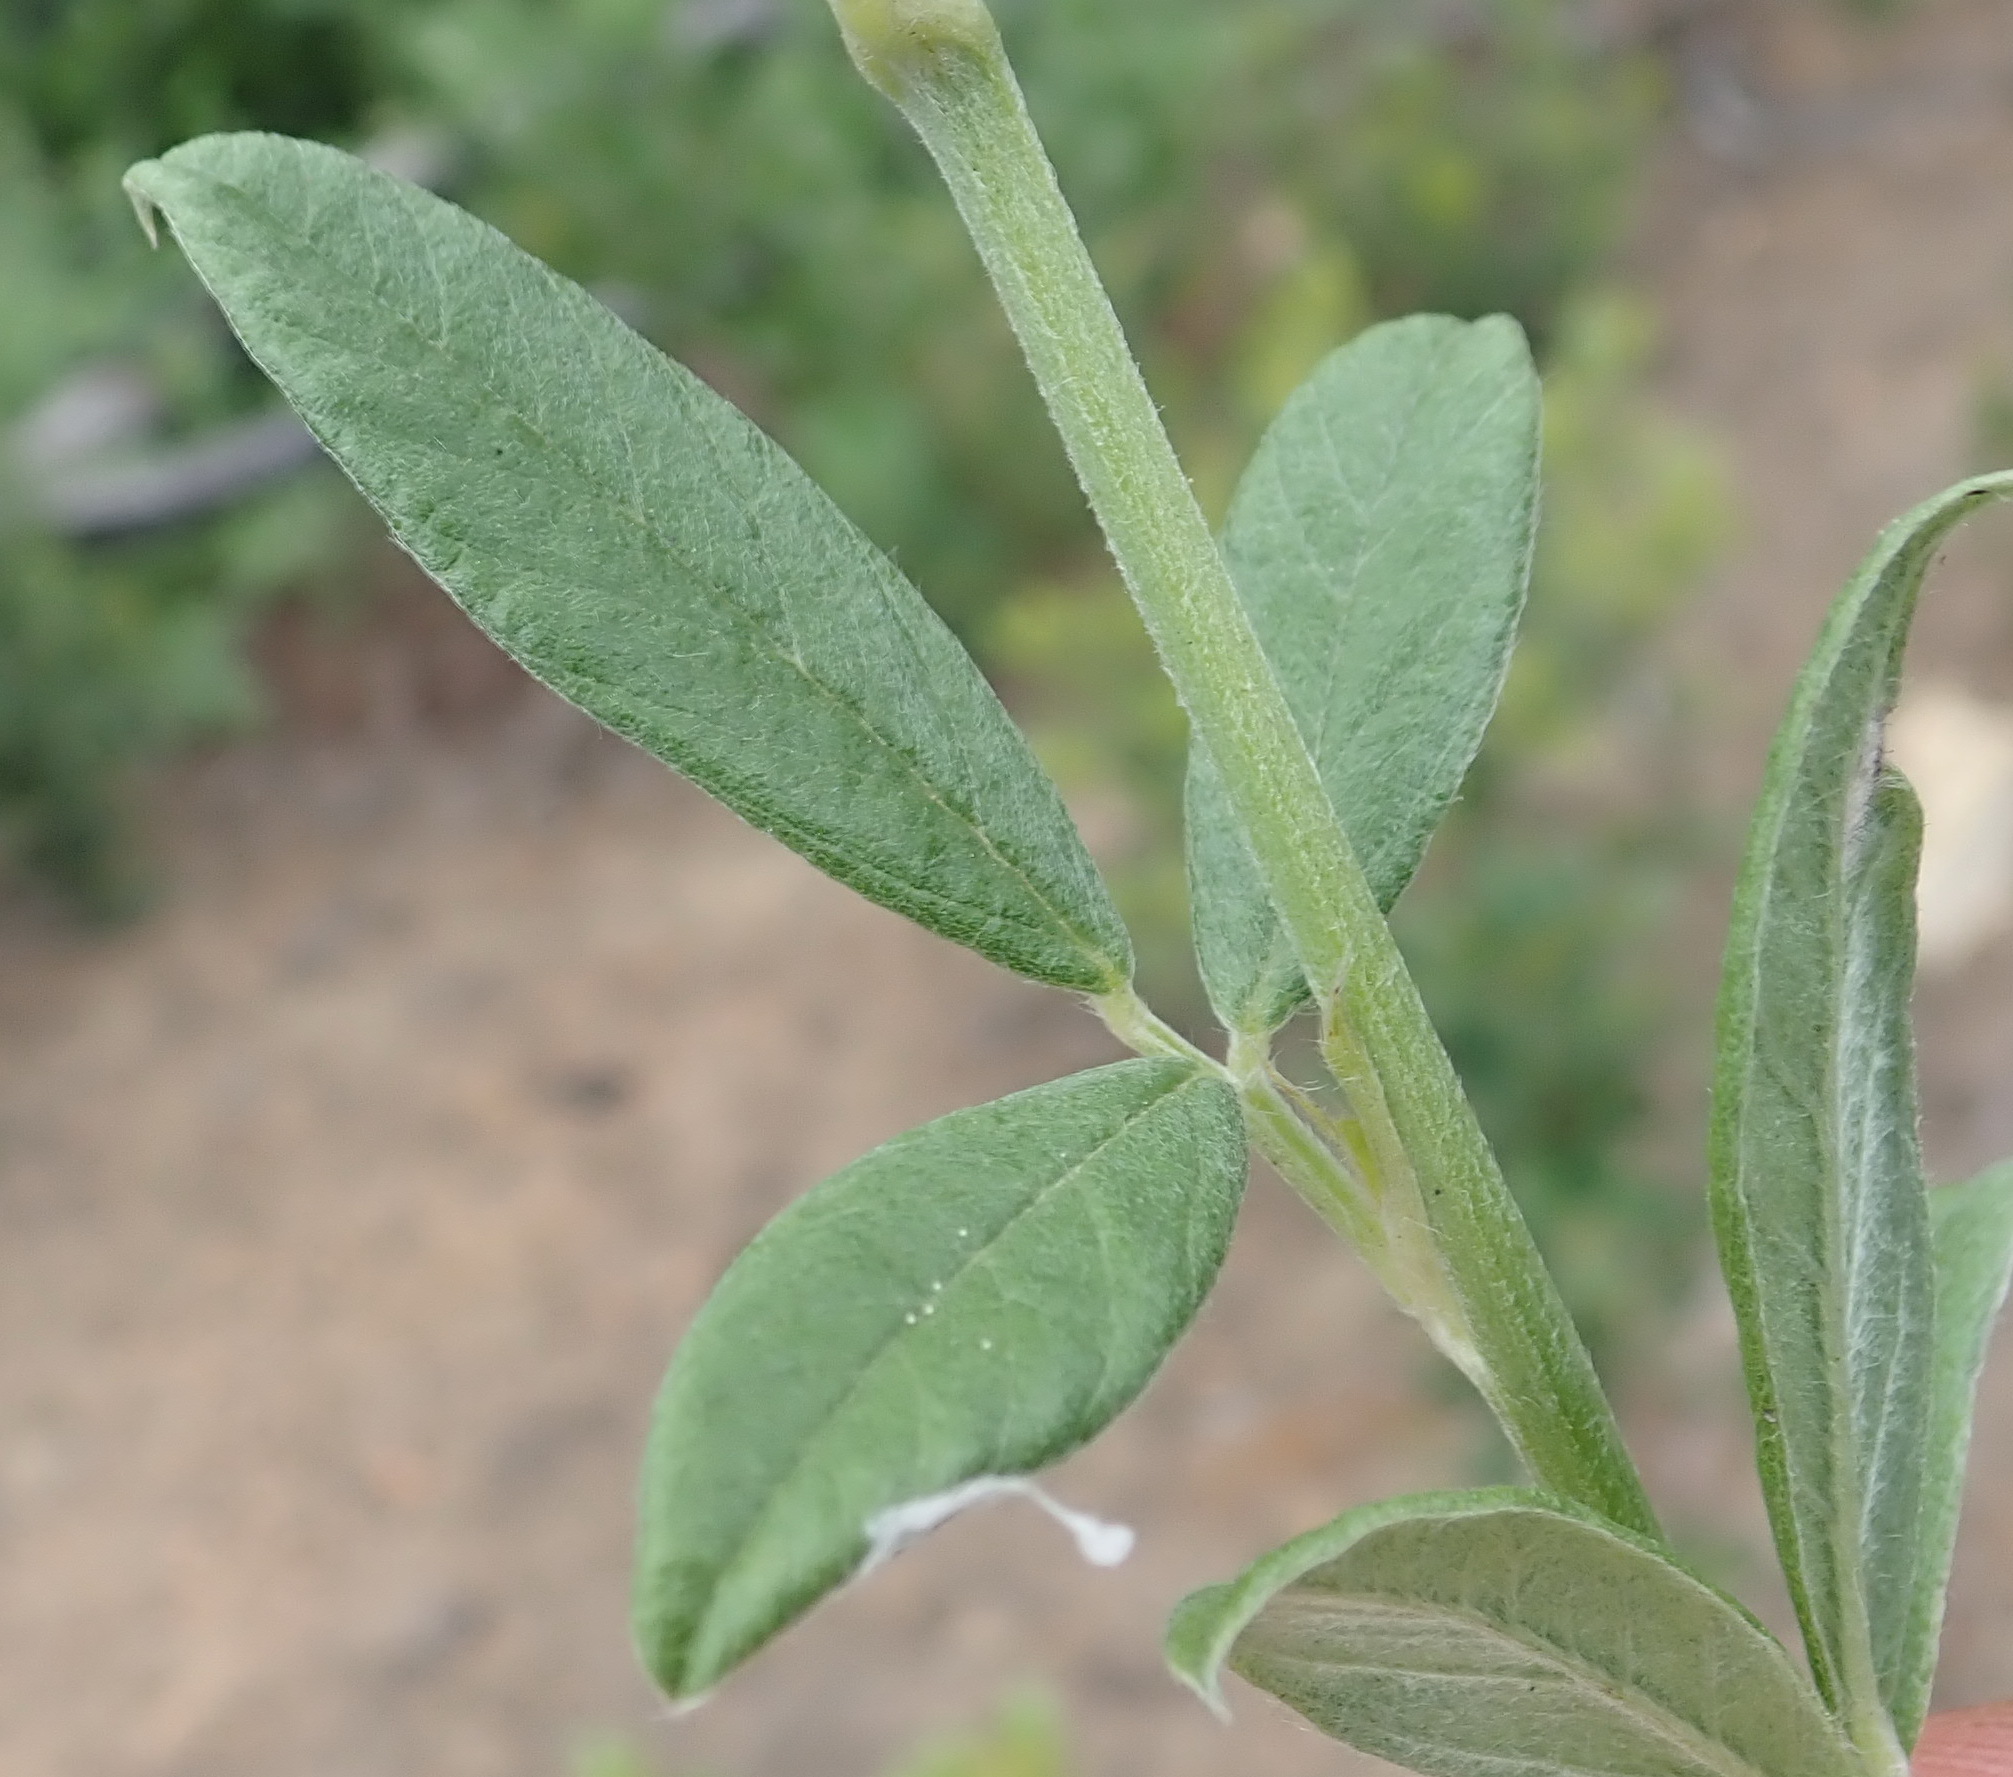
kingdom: Plantae
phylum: Tracheophyta
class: Magnoliopsida
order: Fabales
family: Fabaceae
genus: Psoralea
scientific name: Psoralea sericea
